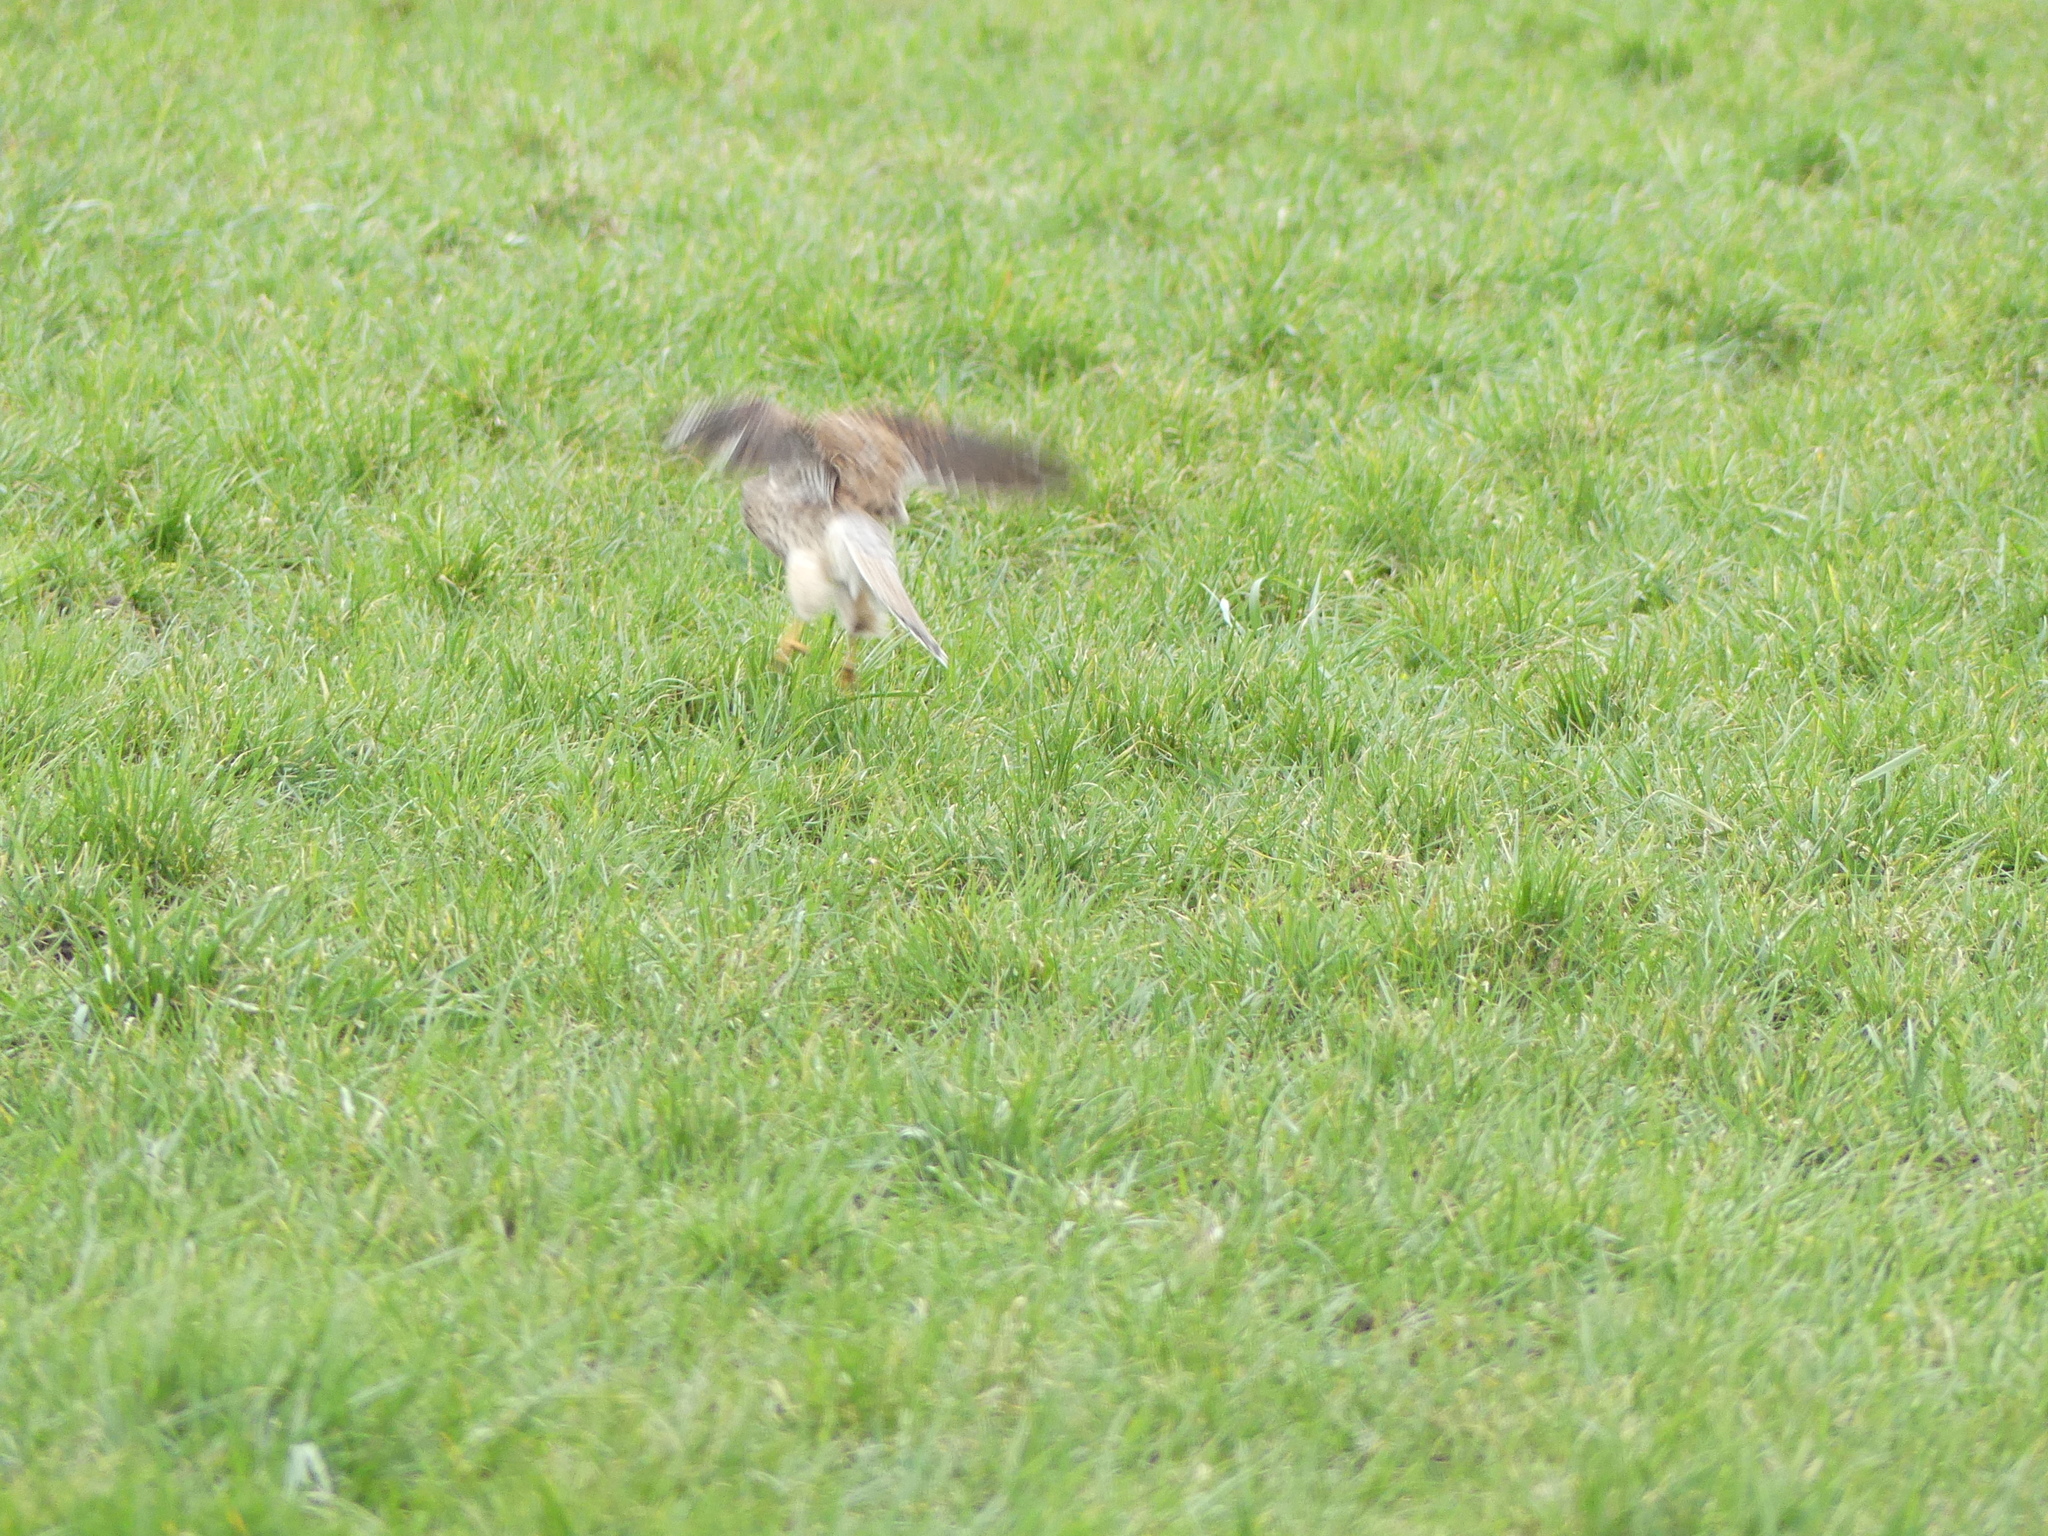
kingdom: Animalia
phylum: Chordata
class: Aves
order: Falconiformes
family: Falconidae
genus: Falco
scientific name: Falco tinnunculus
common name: Common kestrel
